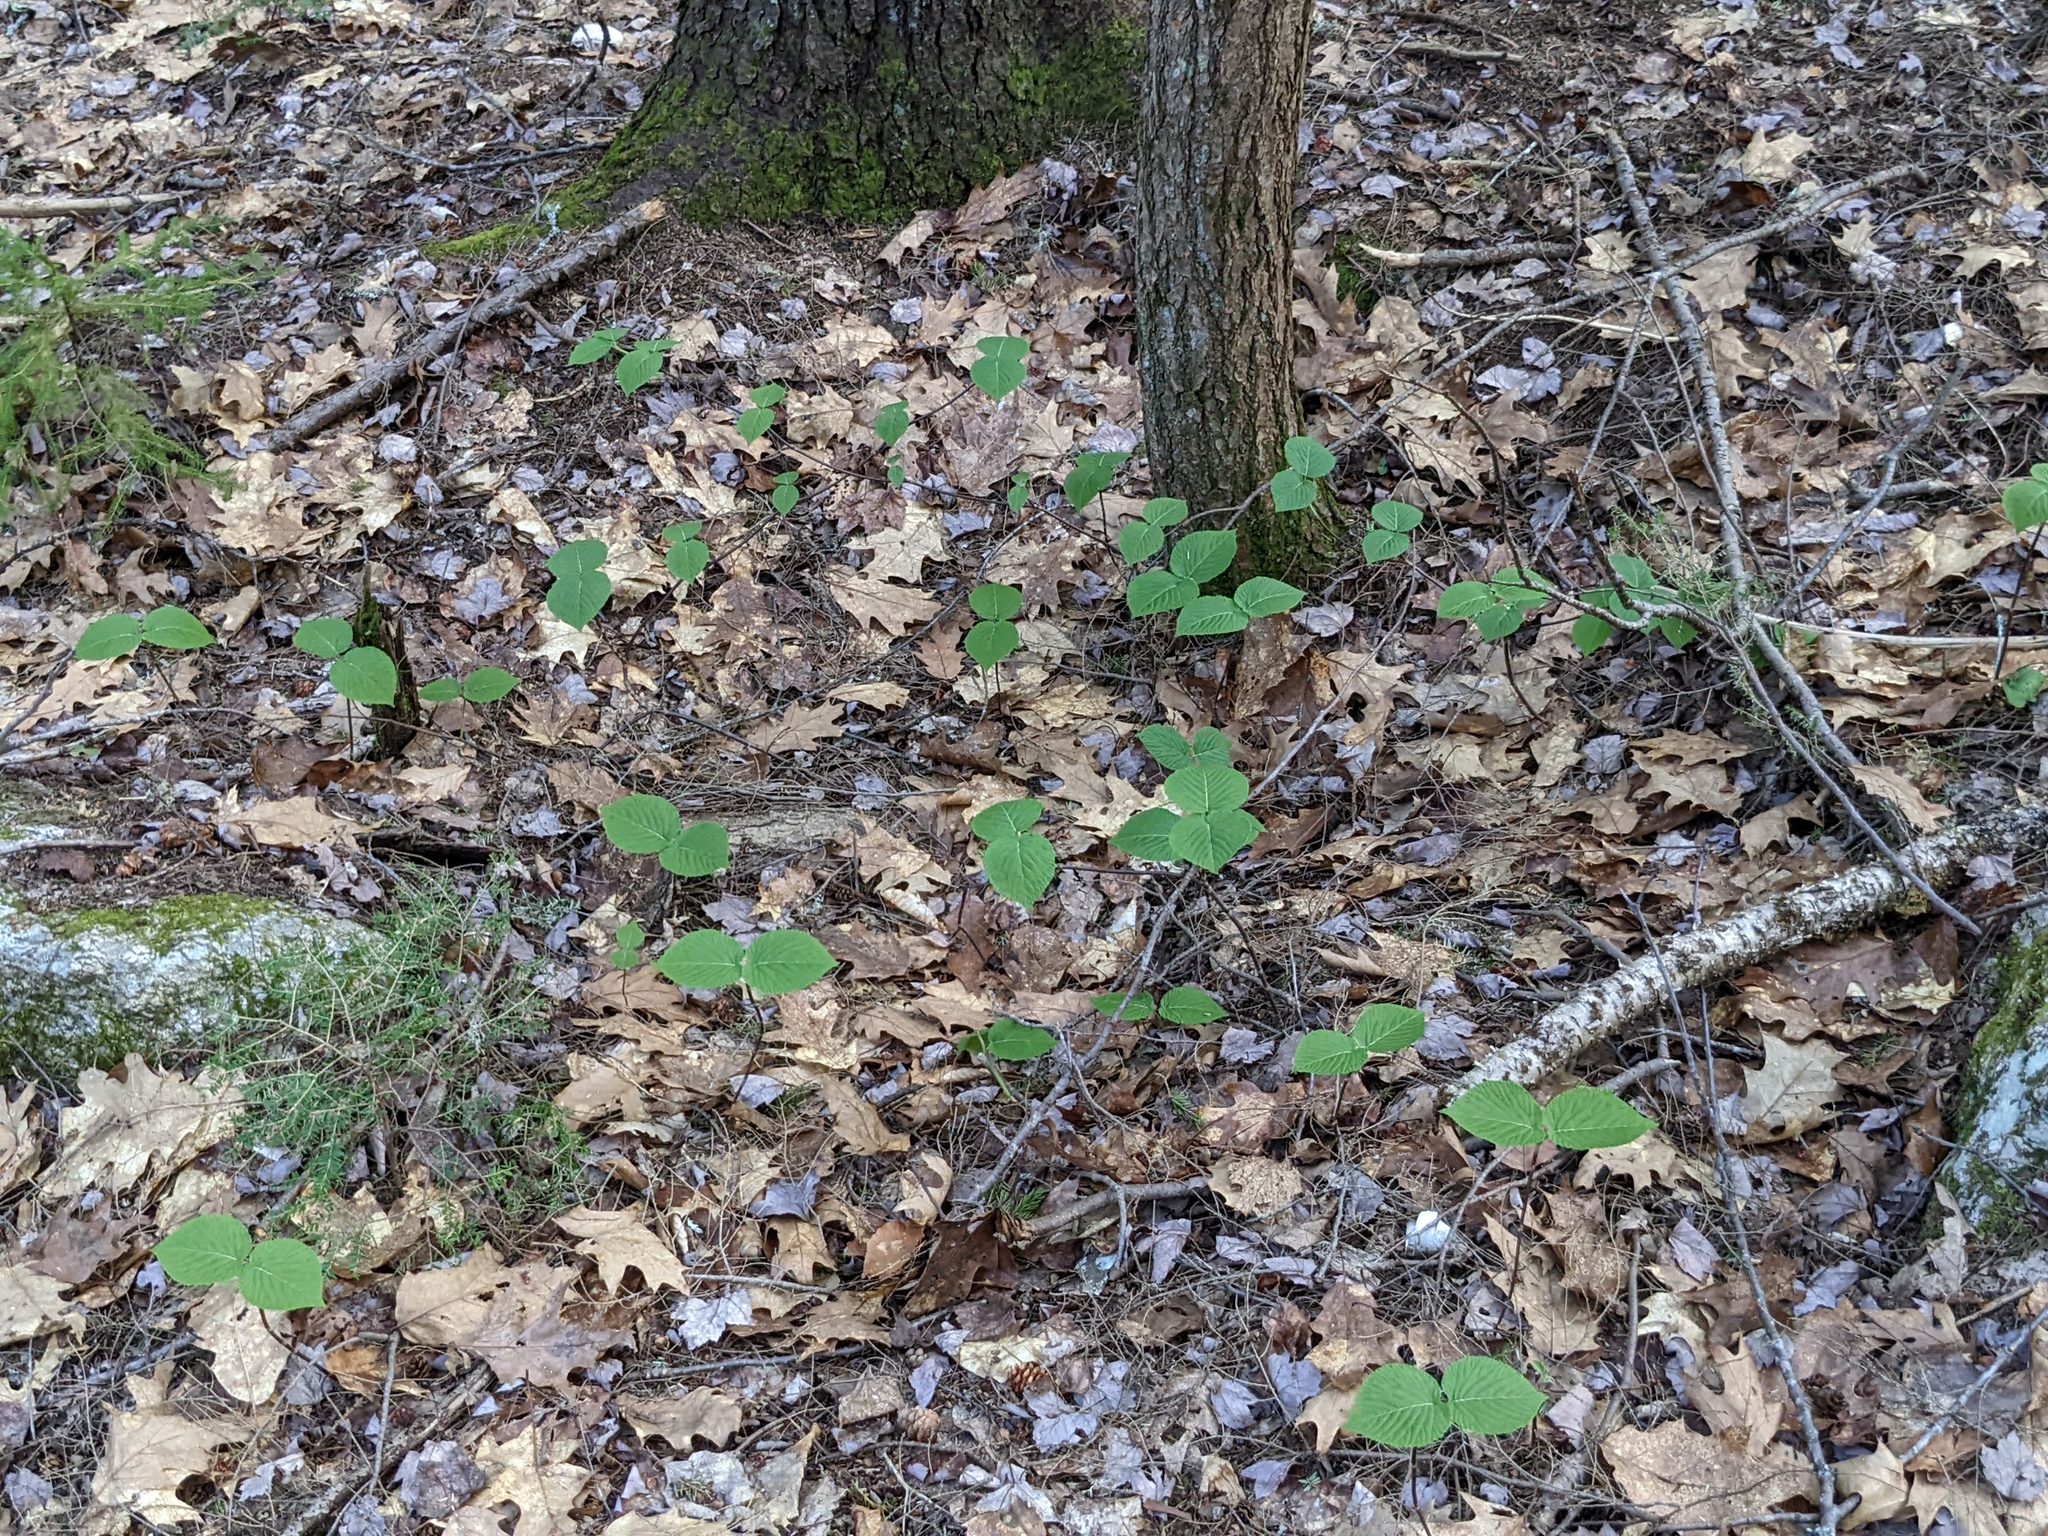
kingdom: Plantae
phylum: Tracheophyta
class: Magnoliopsida
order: Dipsacales
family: Viburnaceae
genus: Viburnum
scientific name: Viburnum lantanoides
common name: Hobblebush
